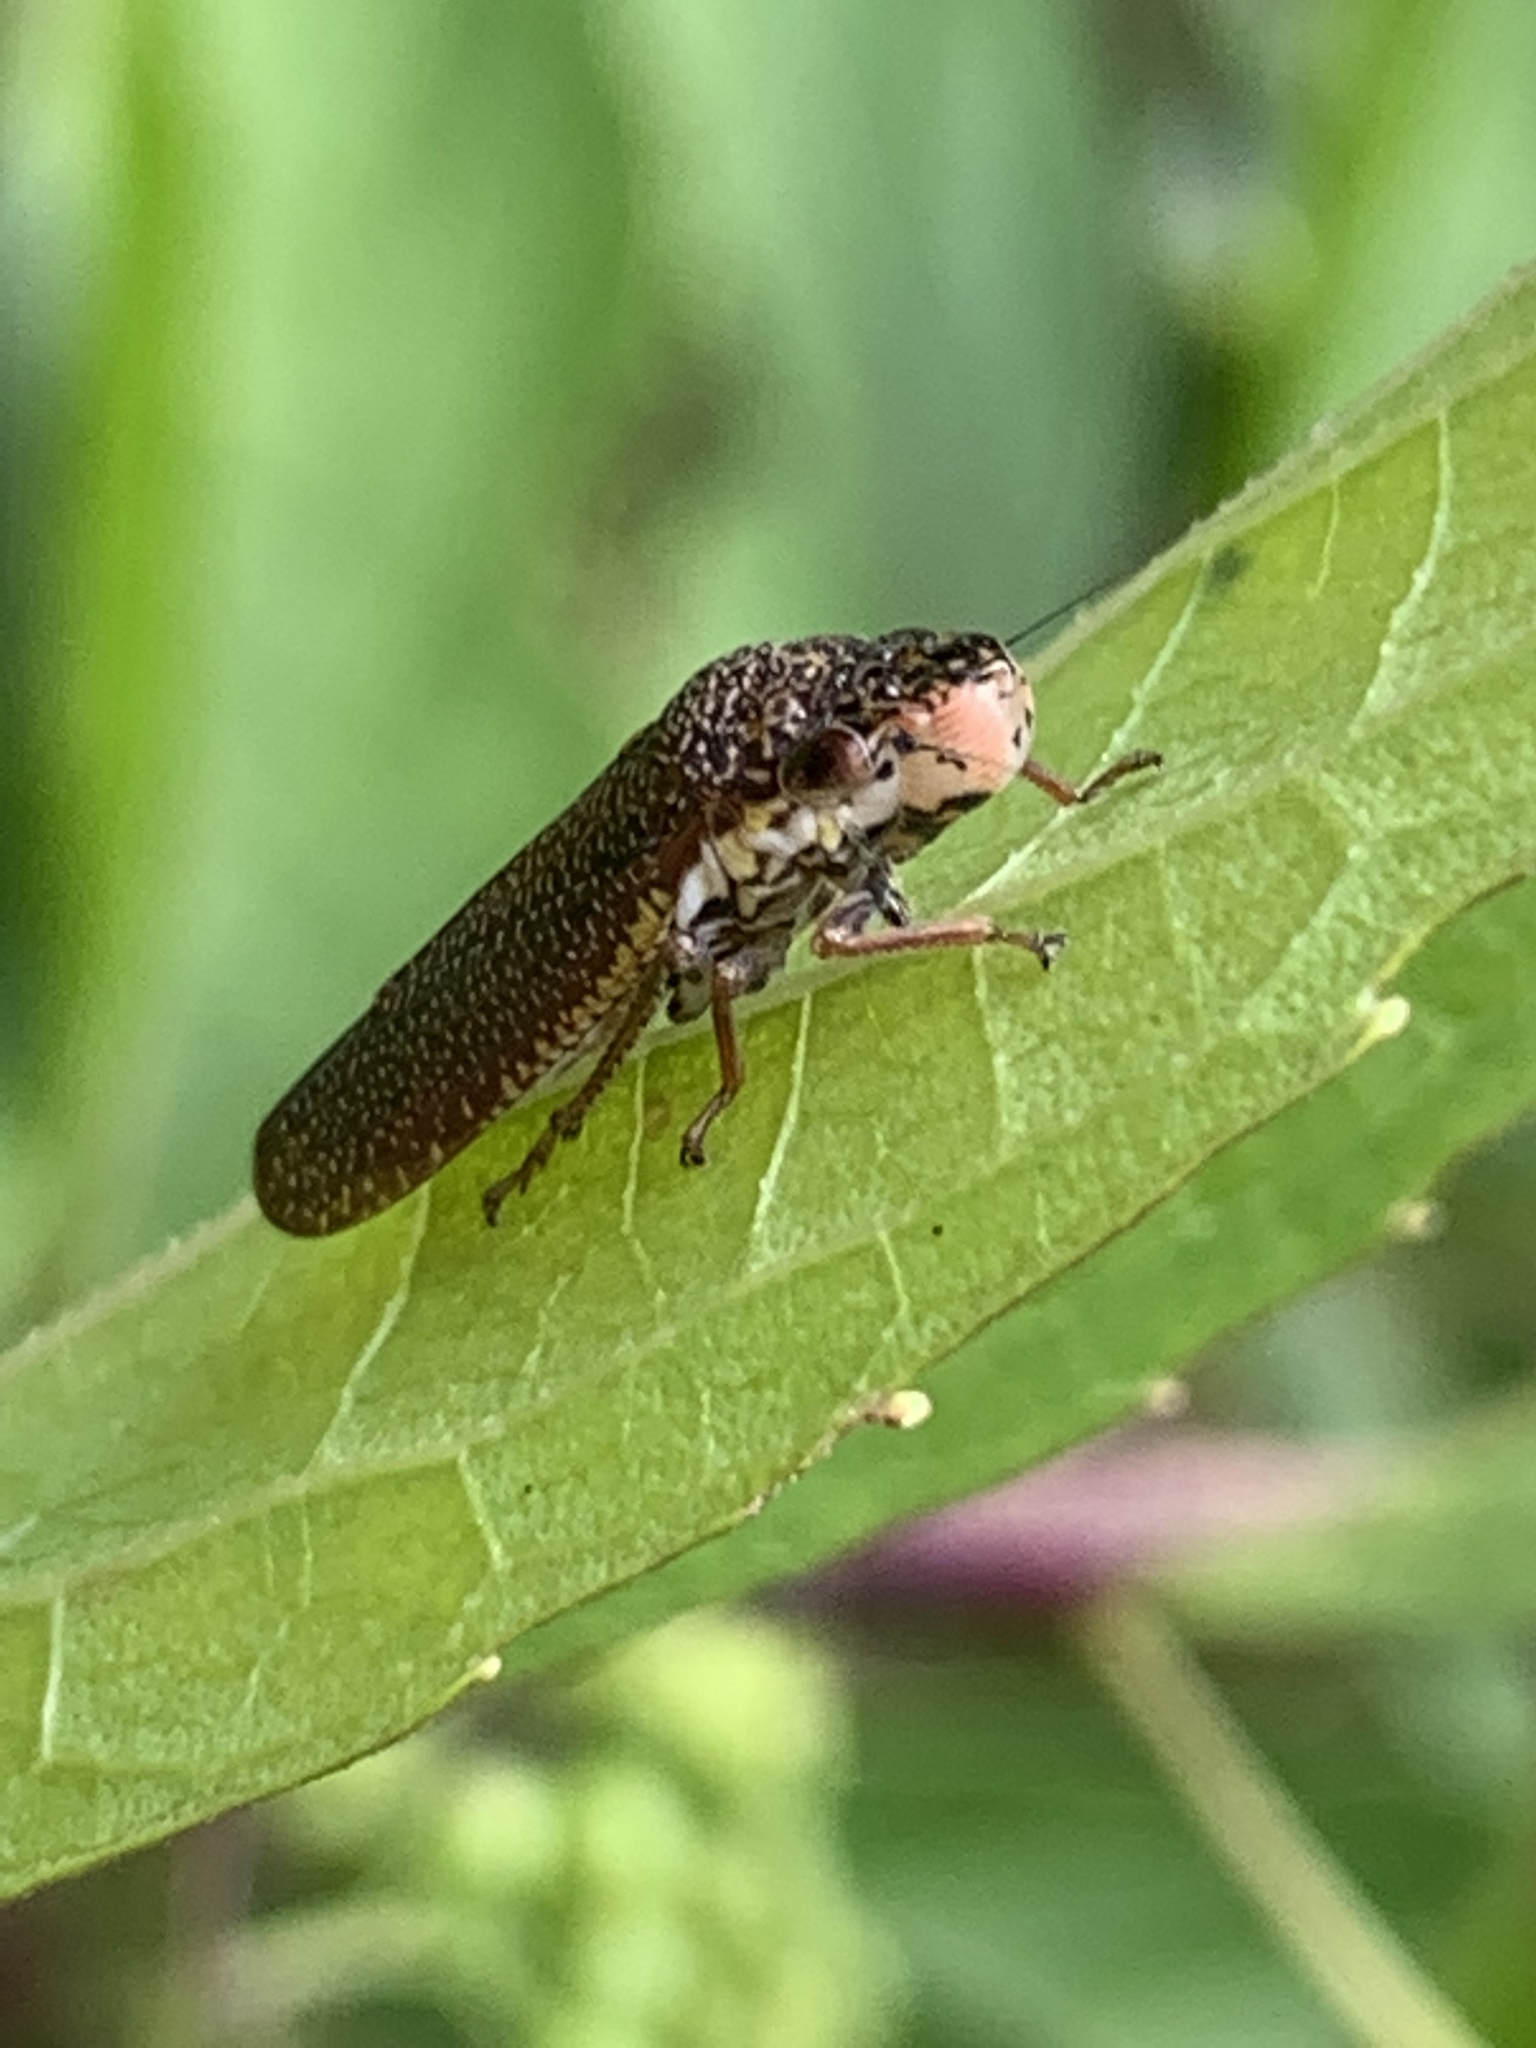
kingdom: Animalia
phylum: Arthropoda
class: Insecta
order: Hemiptera
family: Cicadellidae
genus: Paraulacizes
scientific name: Paraulacizes irrorata
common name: Speckled sharpshooter
